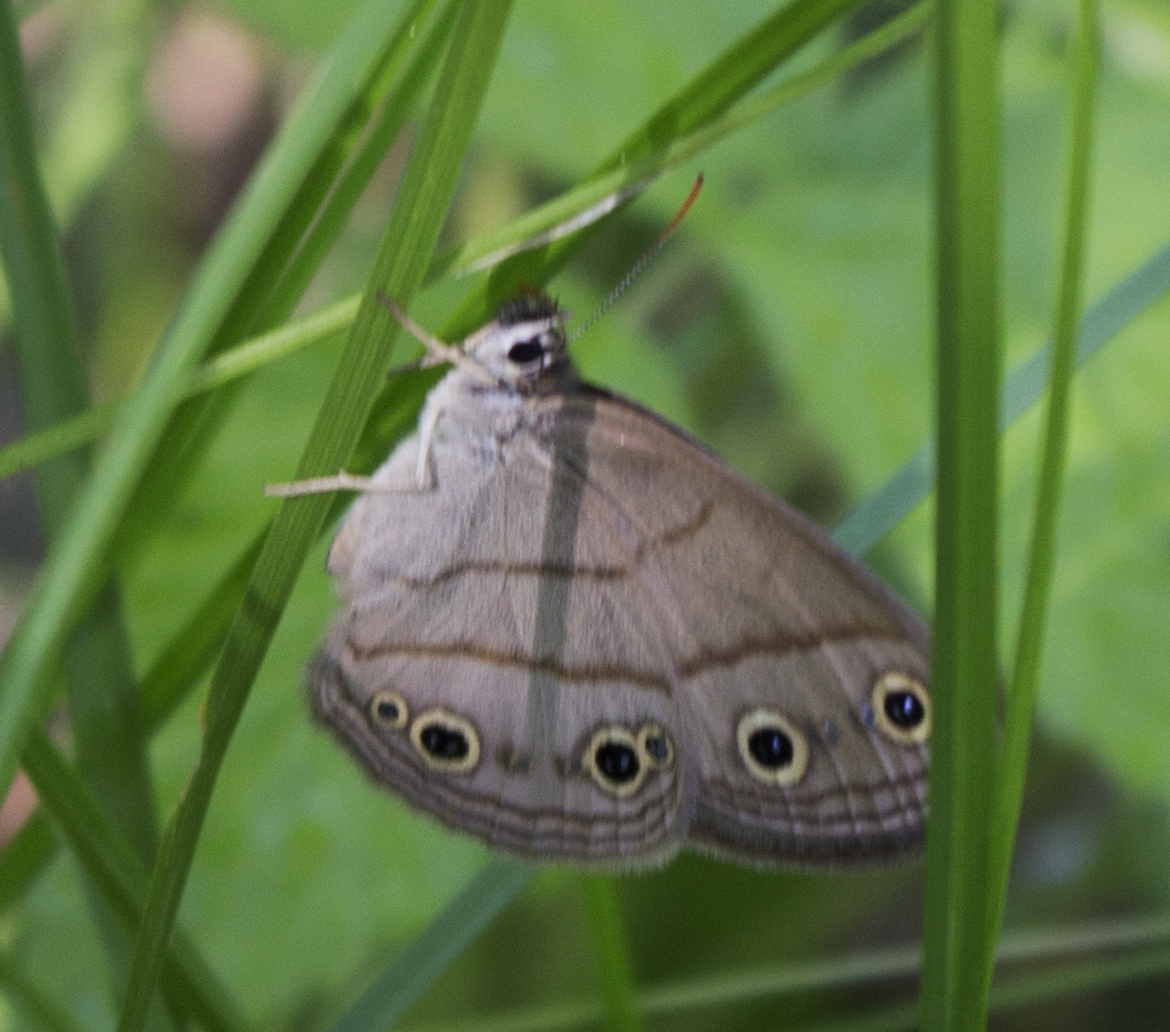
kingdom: Animalia
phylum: Arthropoda
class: Insecta
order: Lepidoptera
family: Nymphalidae
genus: Euptychia
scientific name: Euptychia cymela
